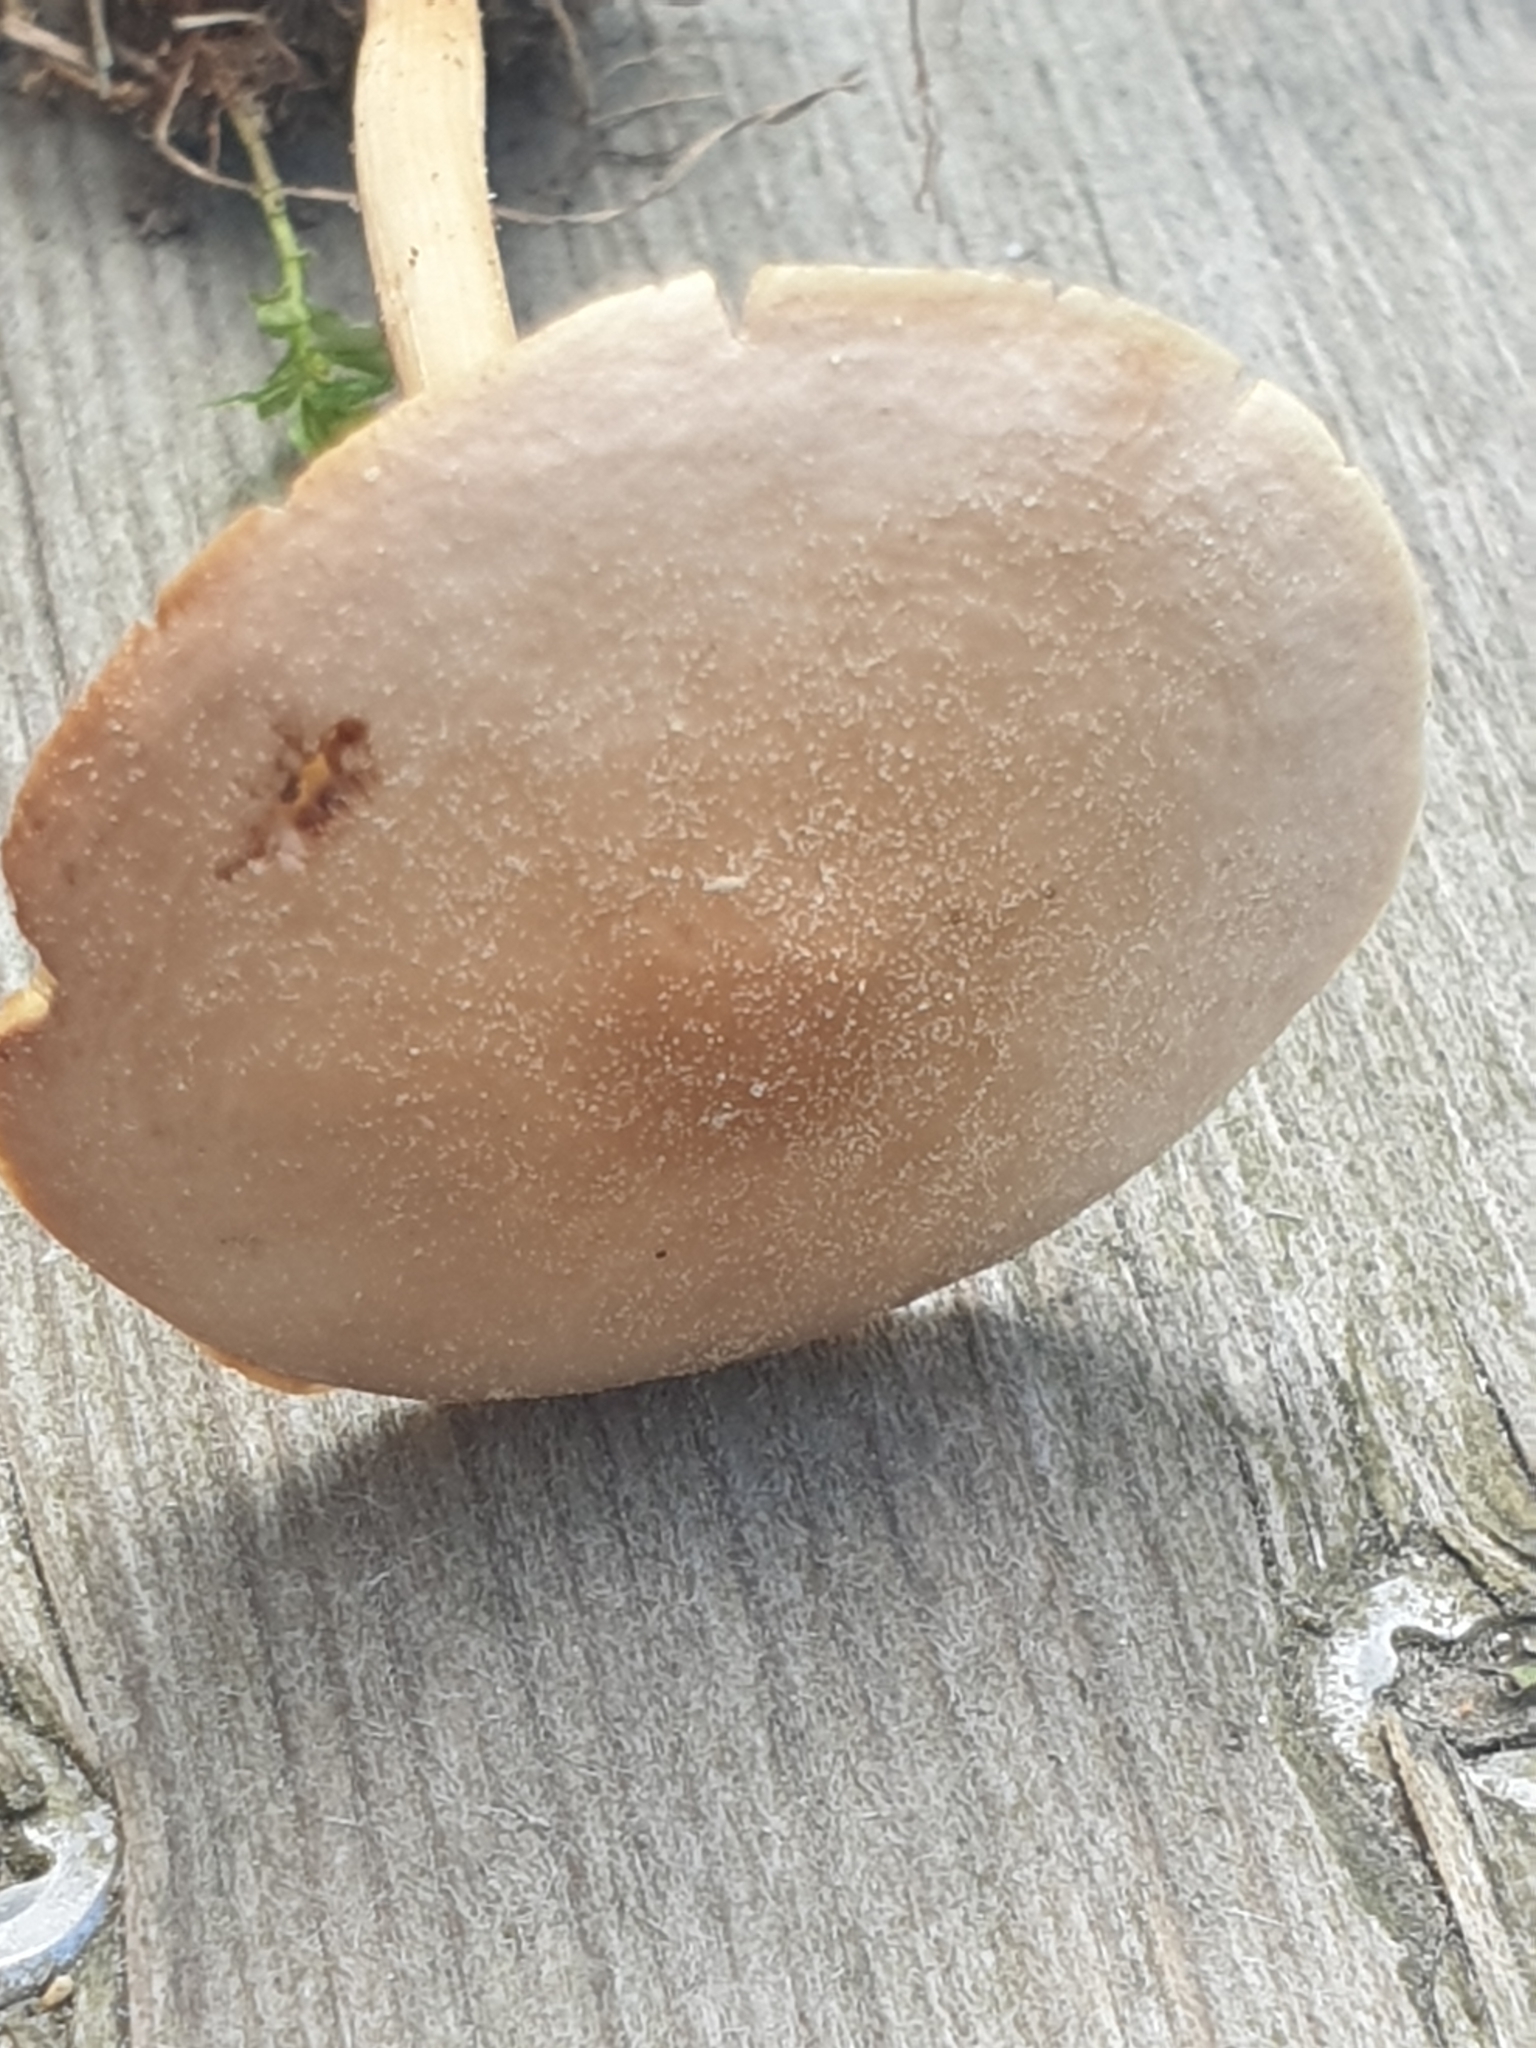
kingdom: Fungi
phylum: Basidiomycota
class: Agaricomycetes
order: Agaricales
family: Omphalotaceae
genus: Gymnopus
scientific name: Gymnopus dryophilus
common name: Penny top
